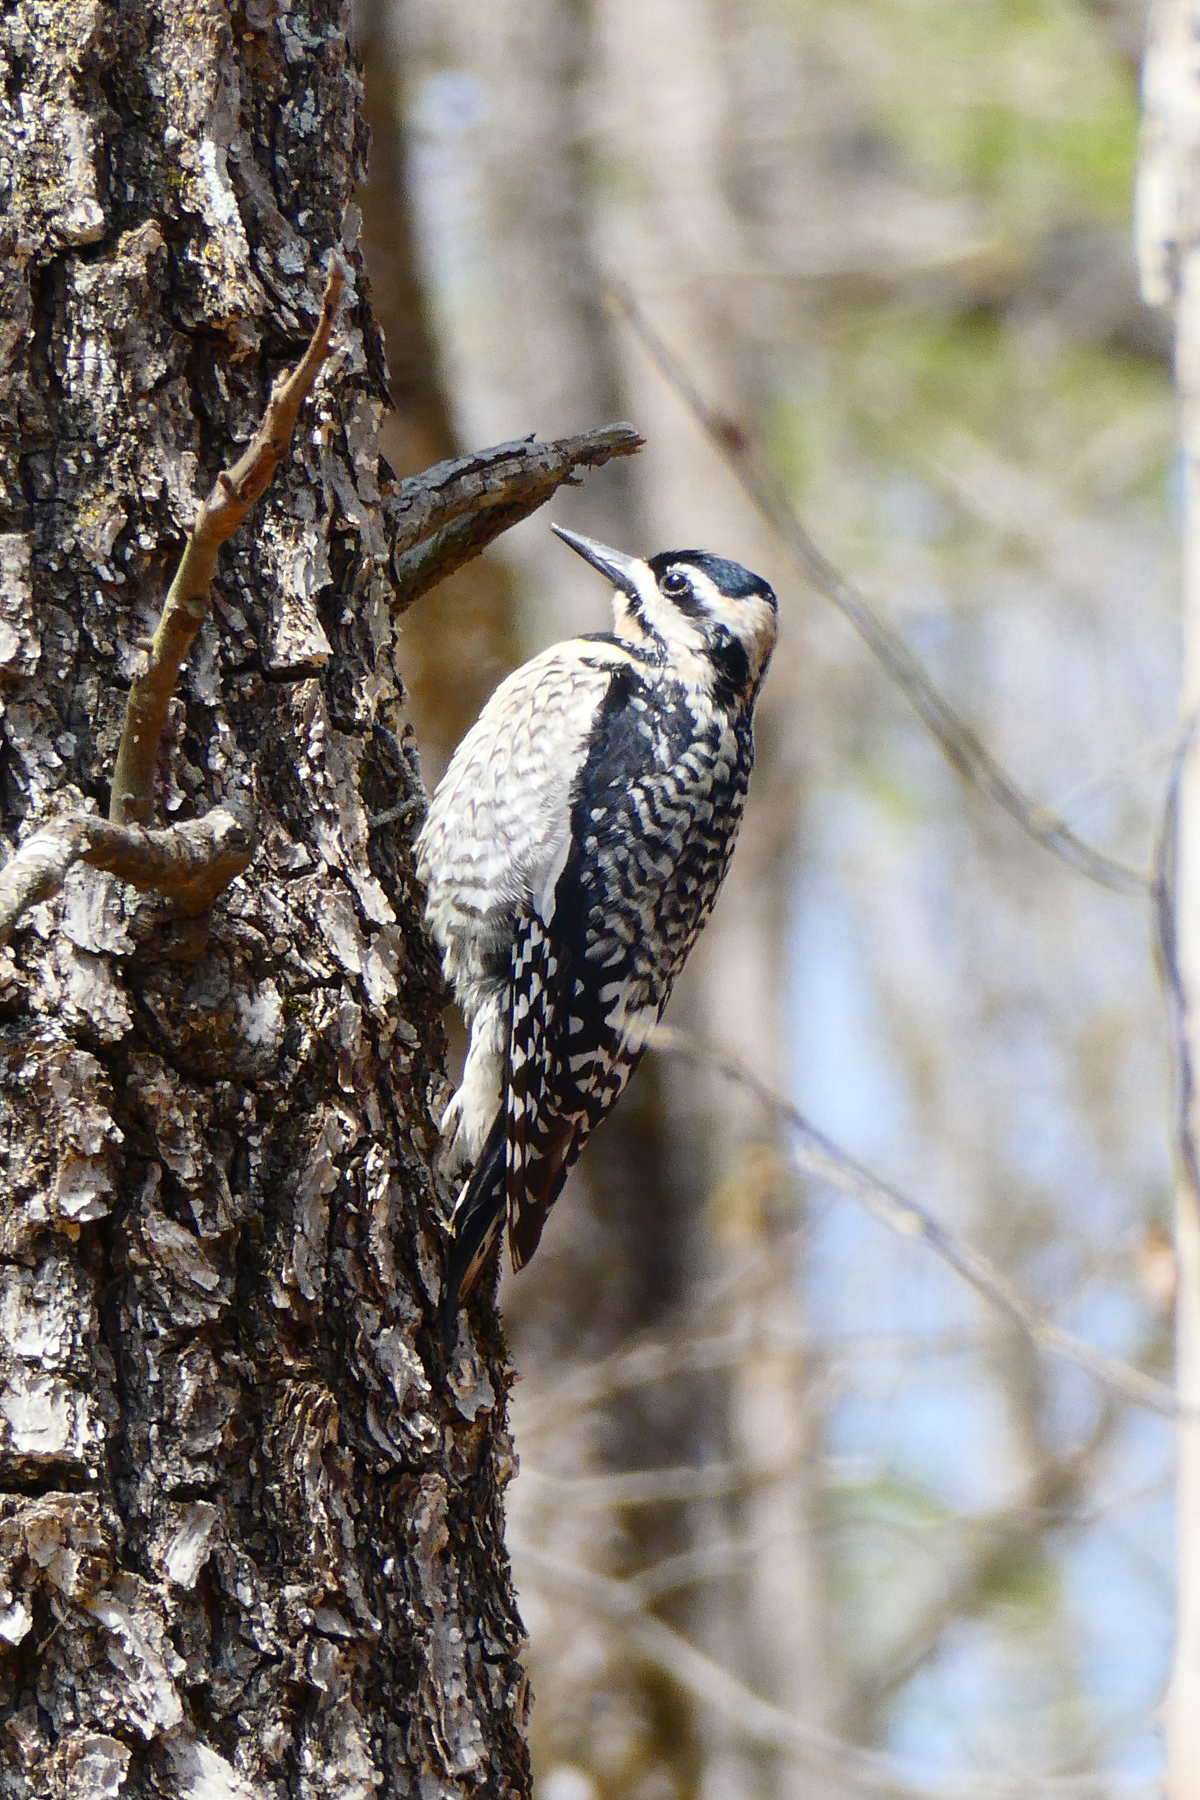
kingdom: Animalia
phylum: Chordata
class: Aves
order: Piciformes
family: Picidae
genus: Sphyrapicus
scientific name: Sphyrapicus varius
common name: Yellow-bellied sapsucker
